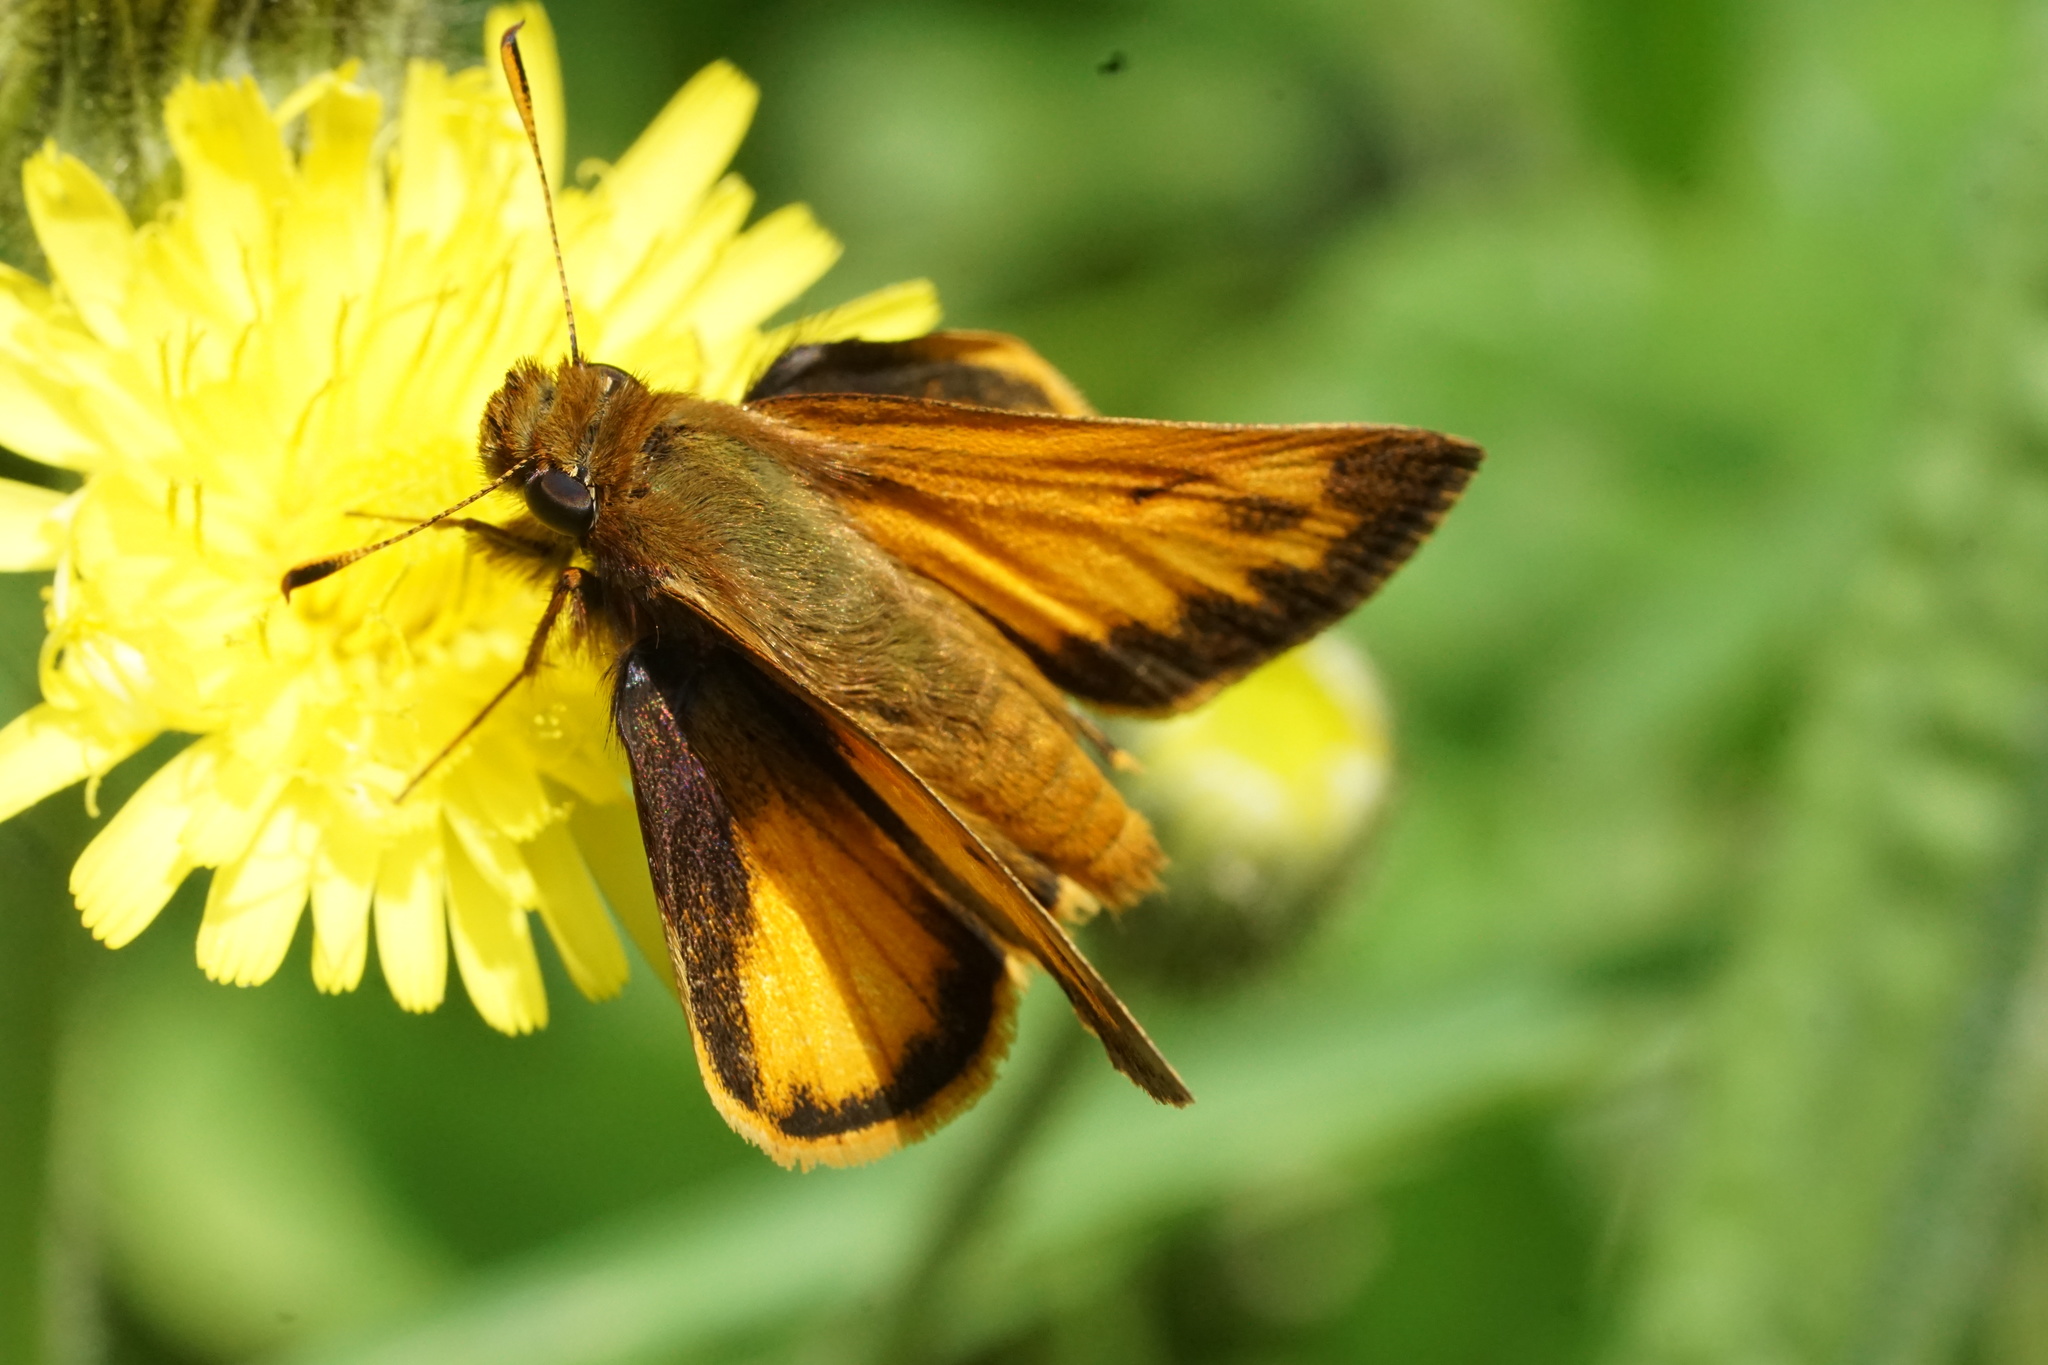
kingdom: Animalia
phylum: Arthropoda
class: Insecta
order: Lepidoptera
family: Hesperiidae
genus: Lon
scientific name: Lon zabulon
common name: Zabulon skipper
